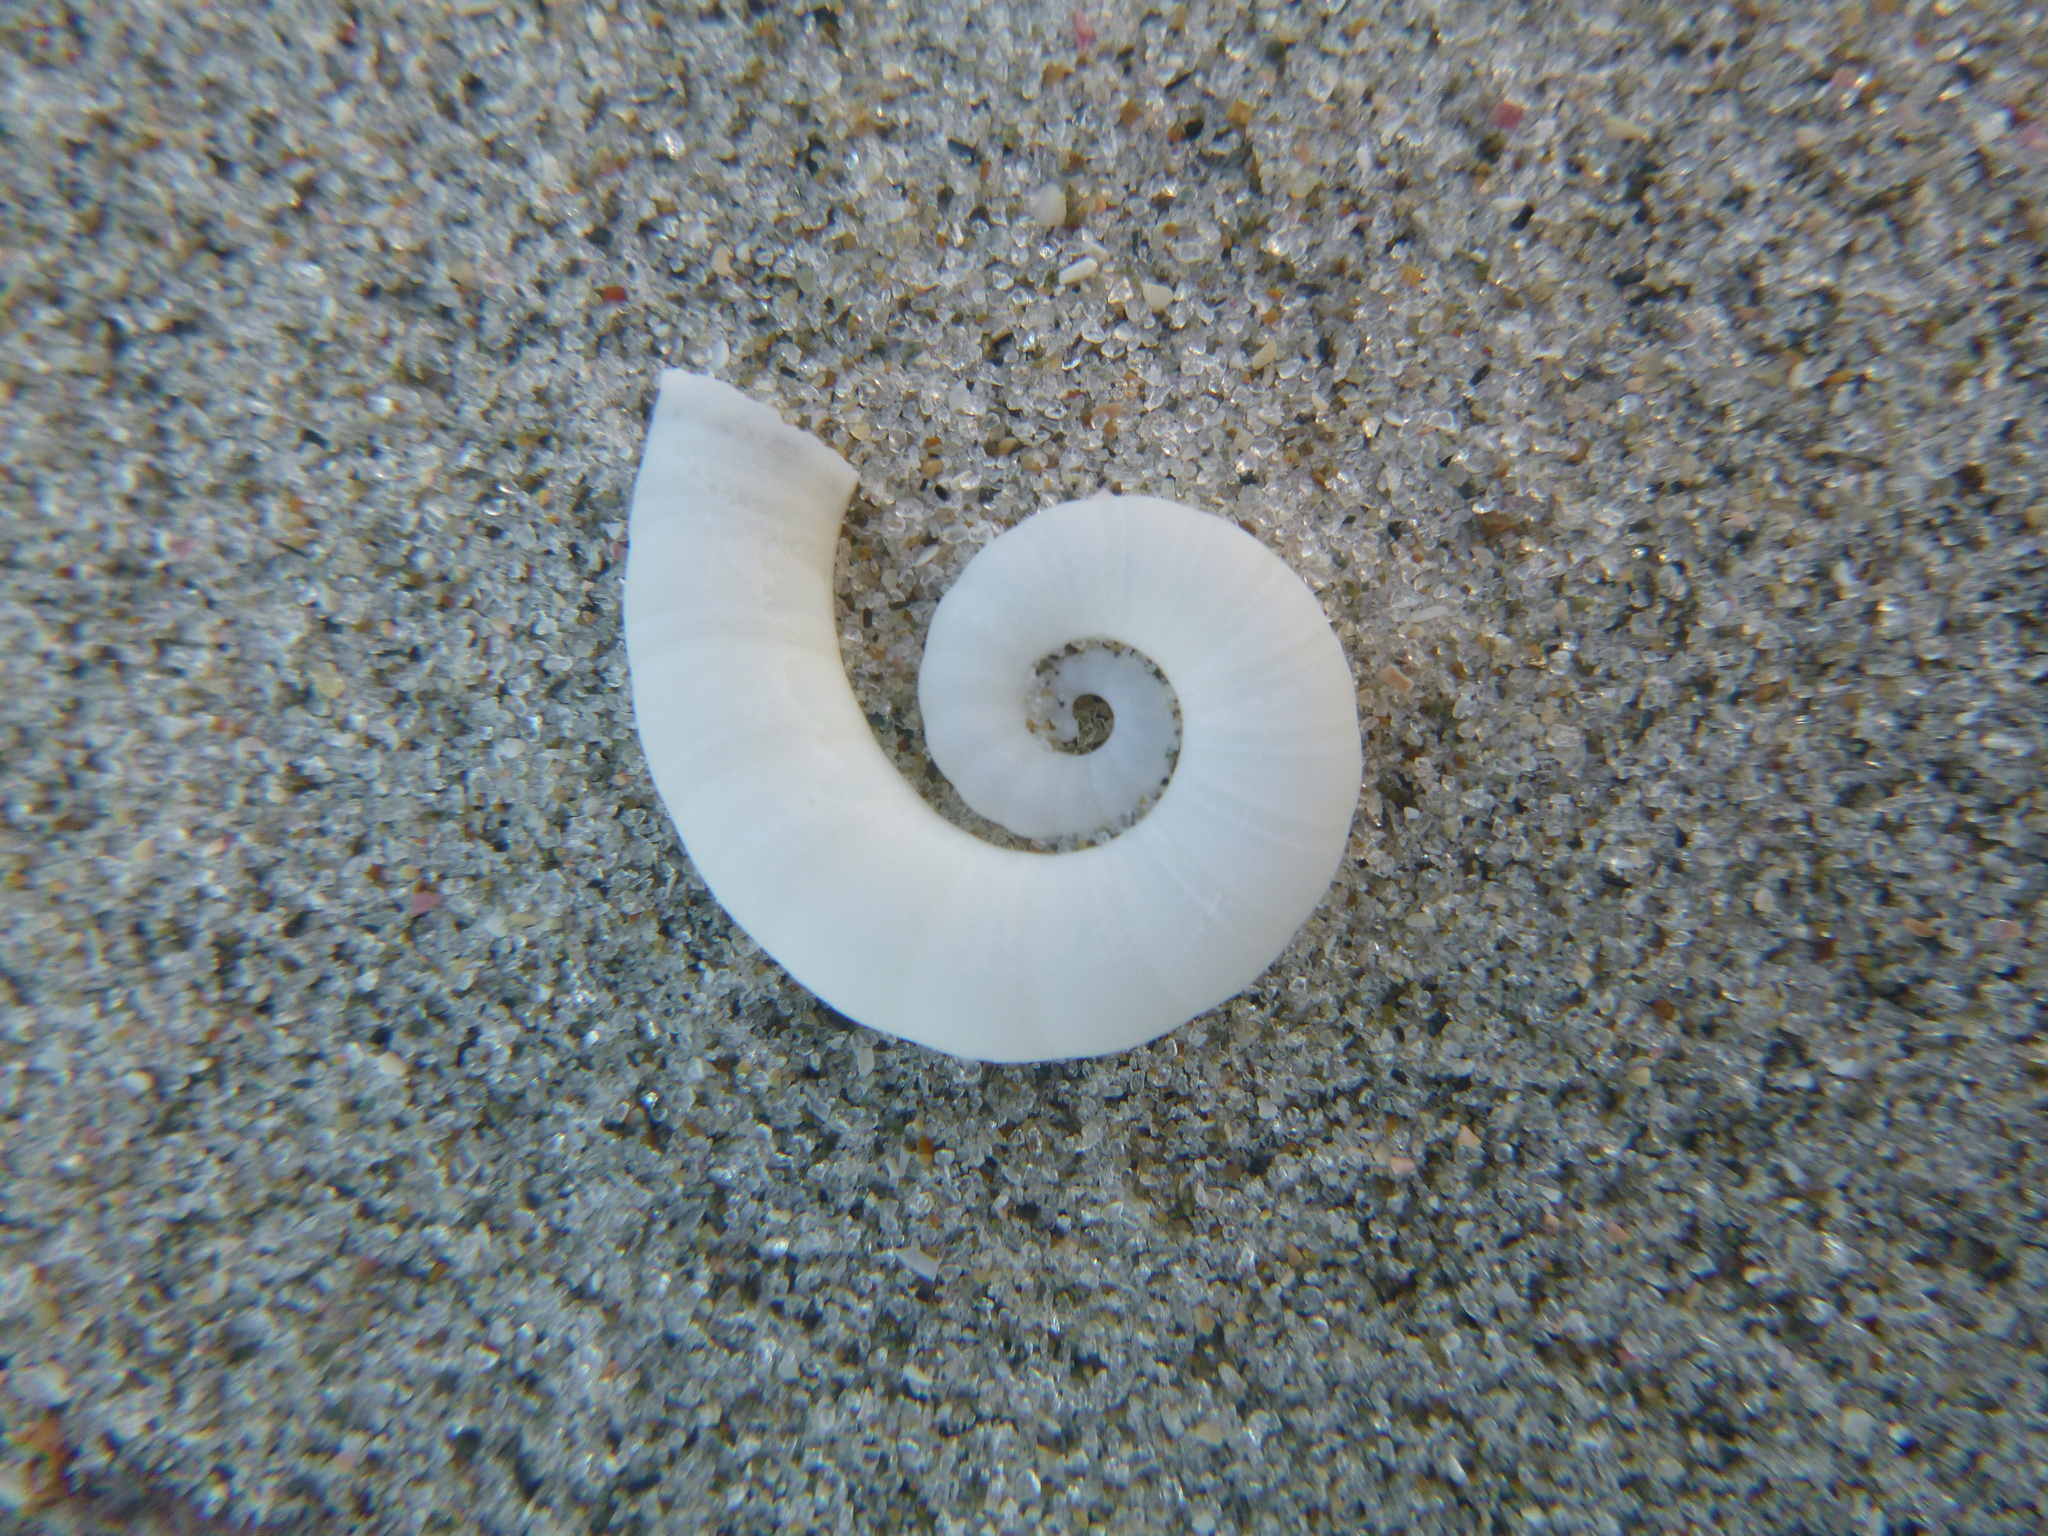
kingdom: Animalia
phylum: Mollusca
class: Cephalopoda
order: Spirulida
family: Spirulidae
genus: Spirula
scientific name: Spirula spirula
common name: Ram's horn squid
